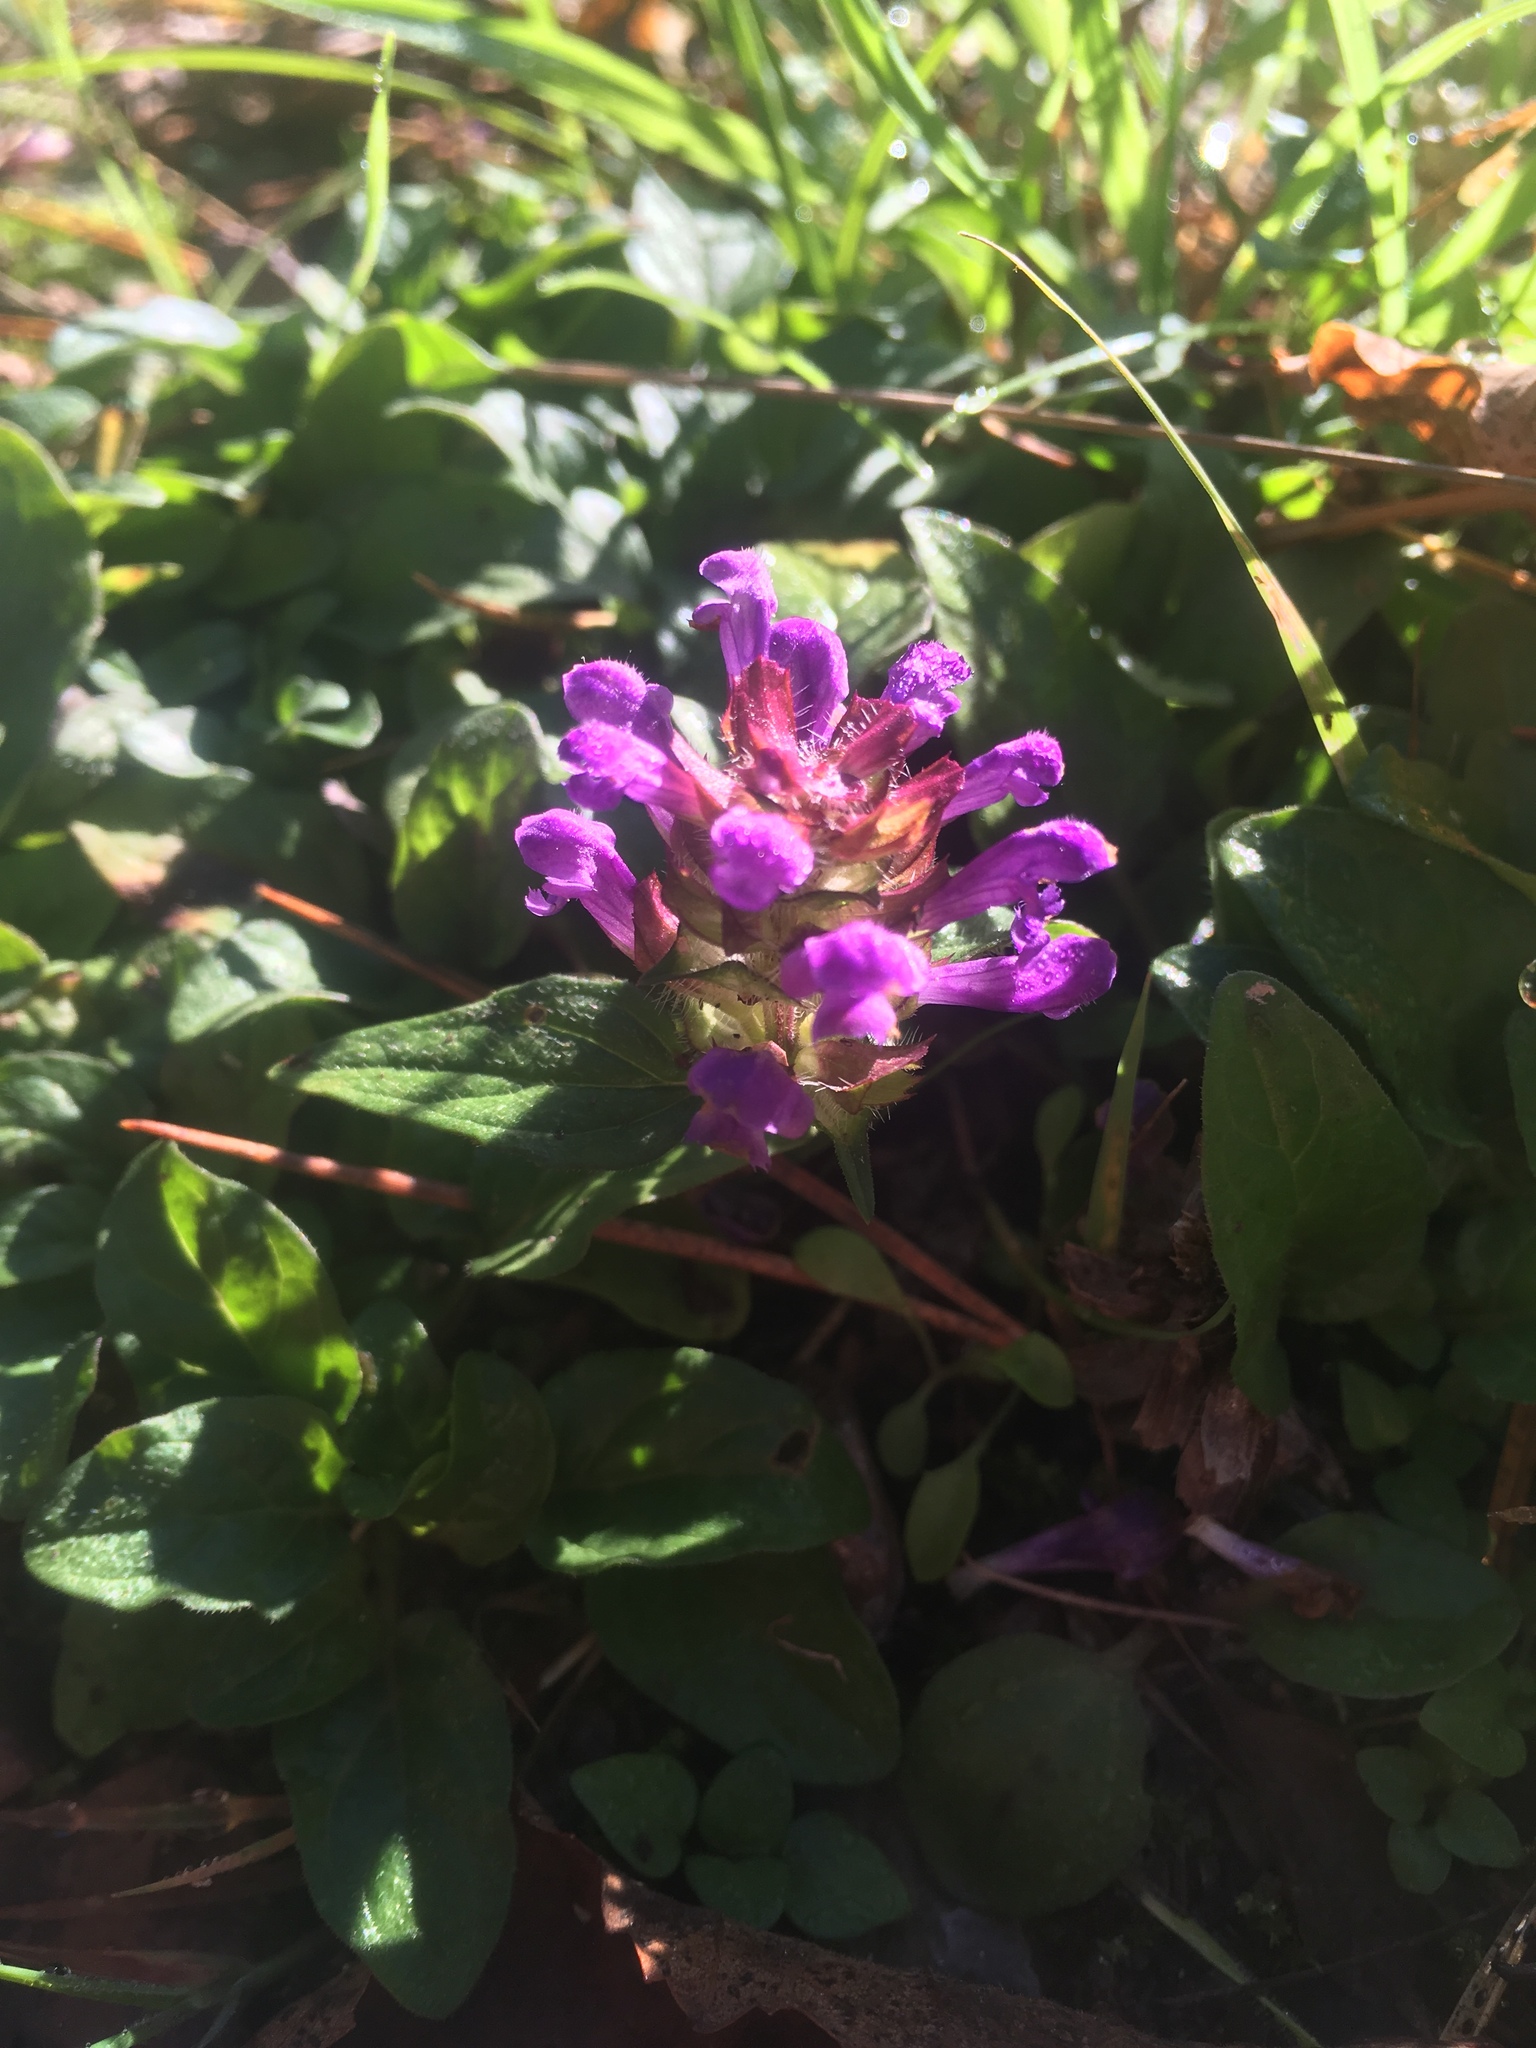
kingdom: Plantae
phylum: Tracheophyta
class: Magnoliopsida
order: Lamiales
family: Lamiaceae
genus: Prunella
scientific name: Prunella vulgaris
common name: Heal-all
